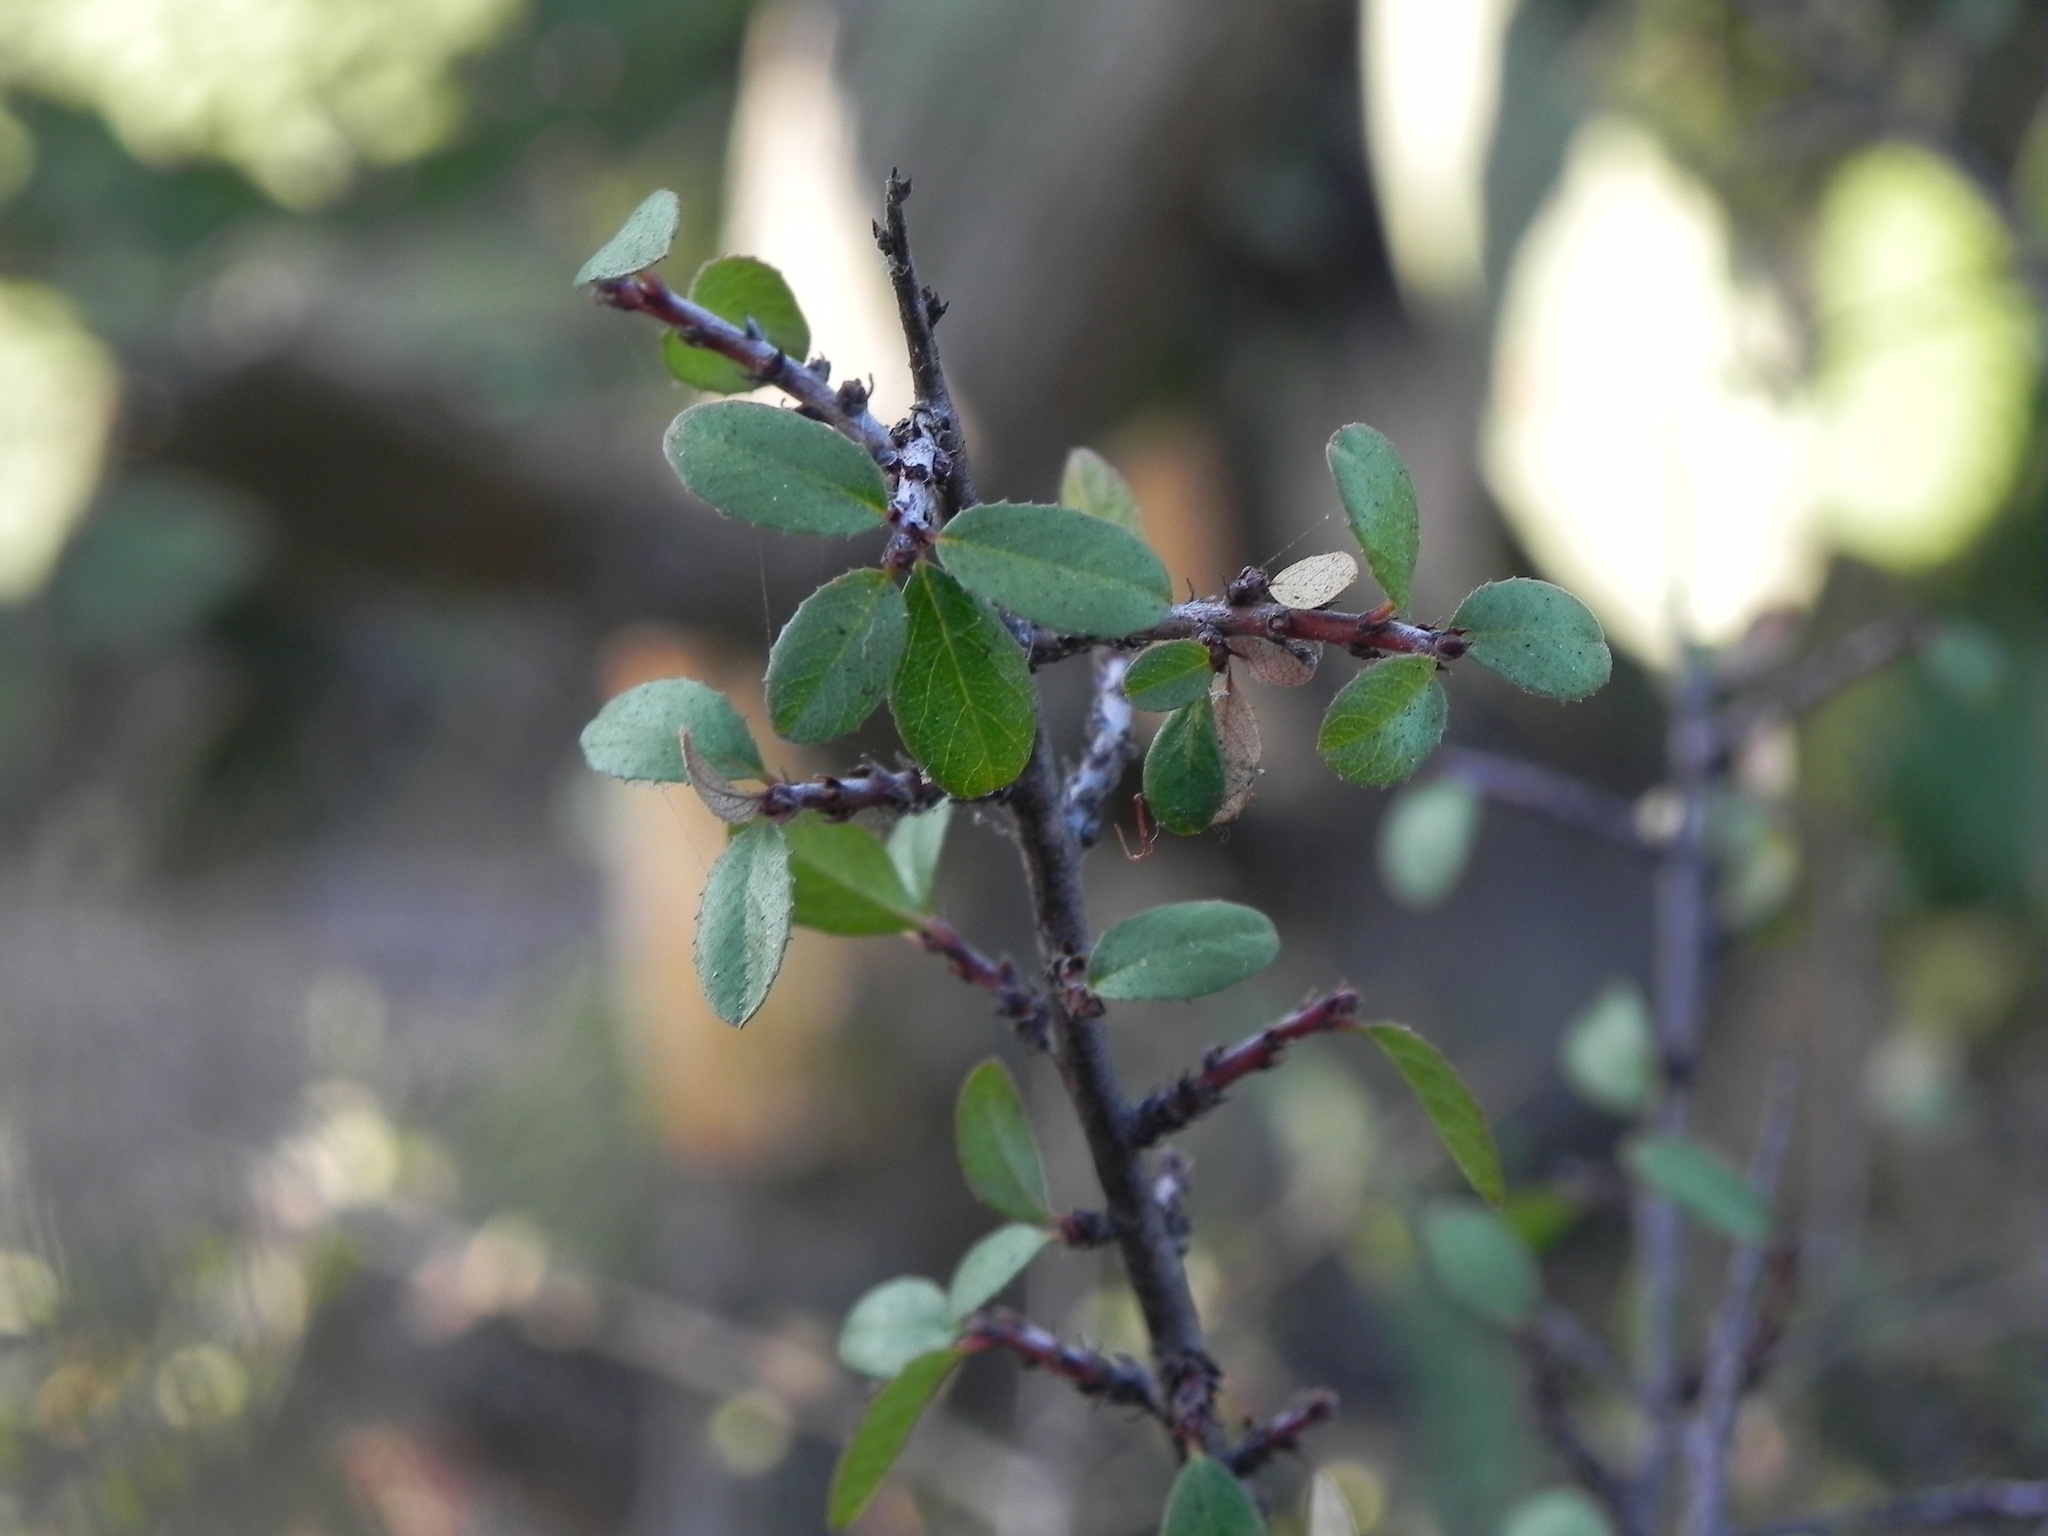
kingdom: Plantae
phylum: Tracheophyta
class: Magnoliopsida
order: Rosales
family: Rhamnaceae
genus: Endotropis
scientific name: Endotropis crocea
